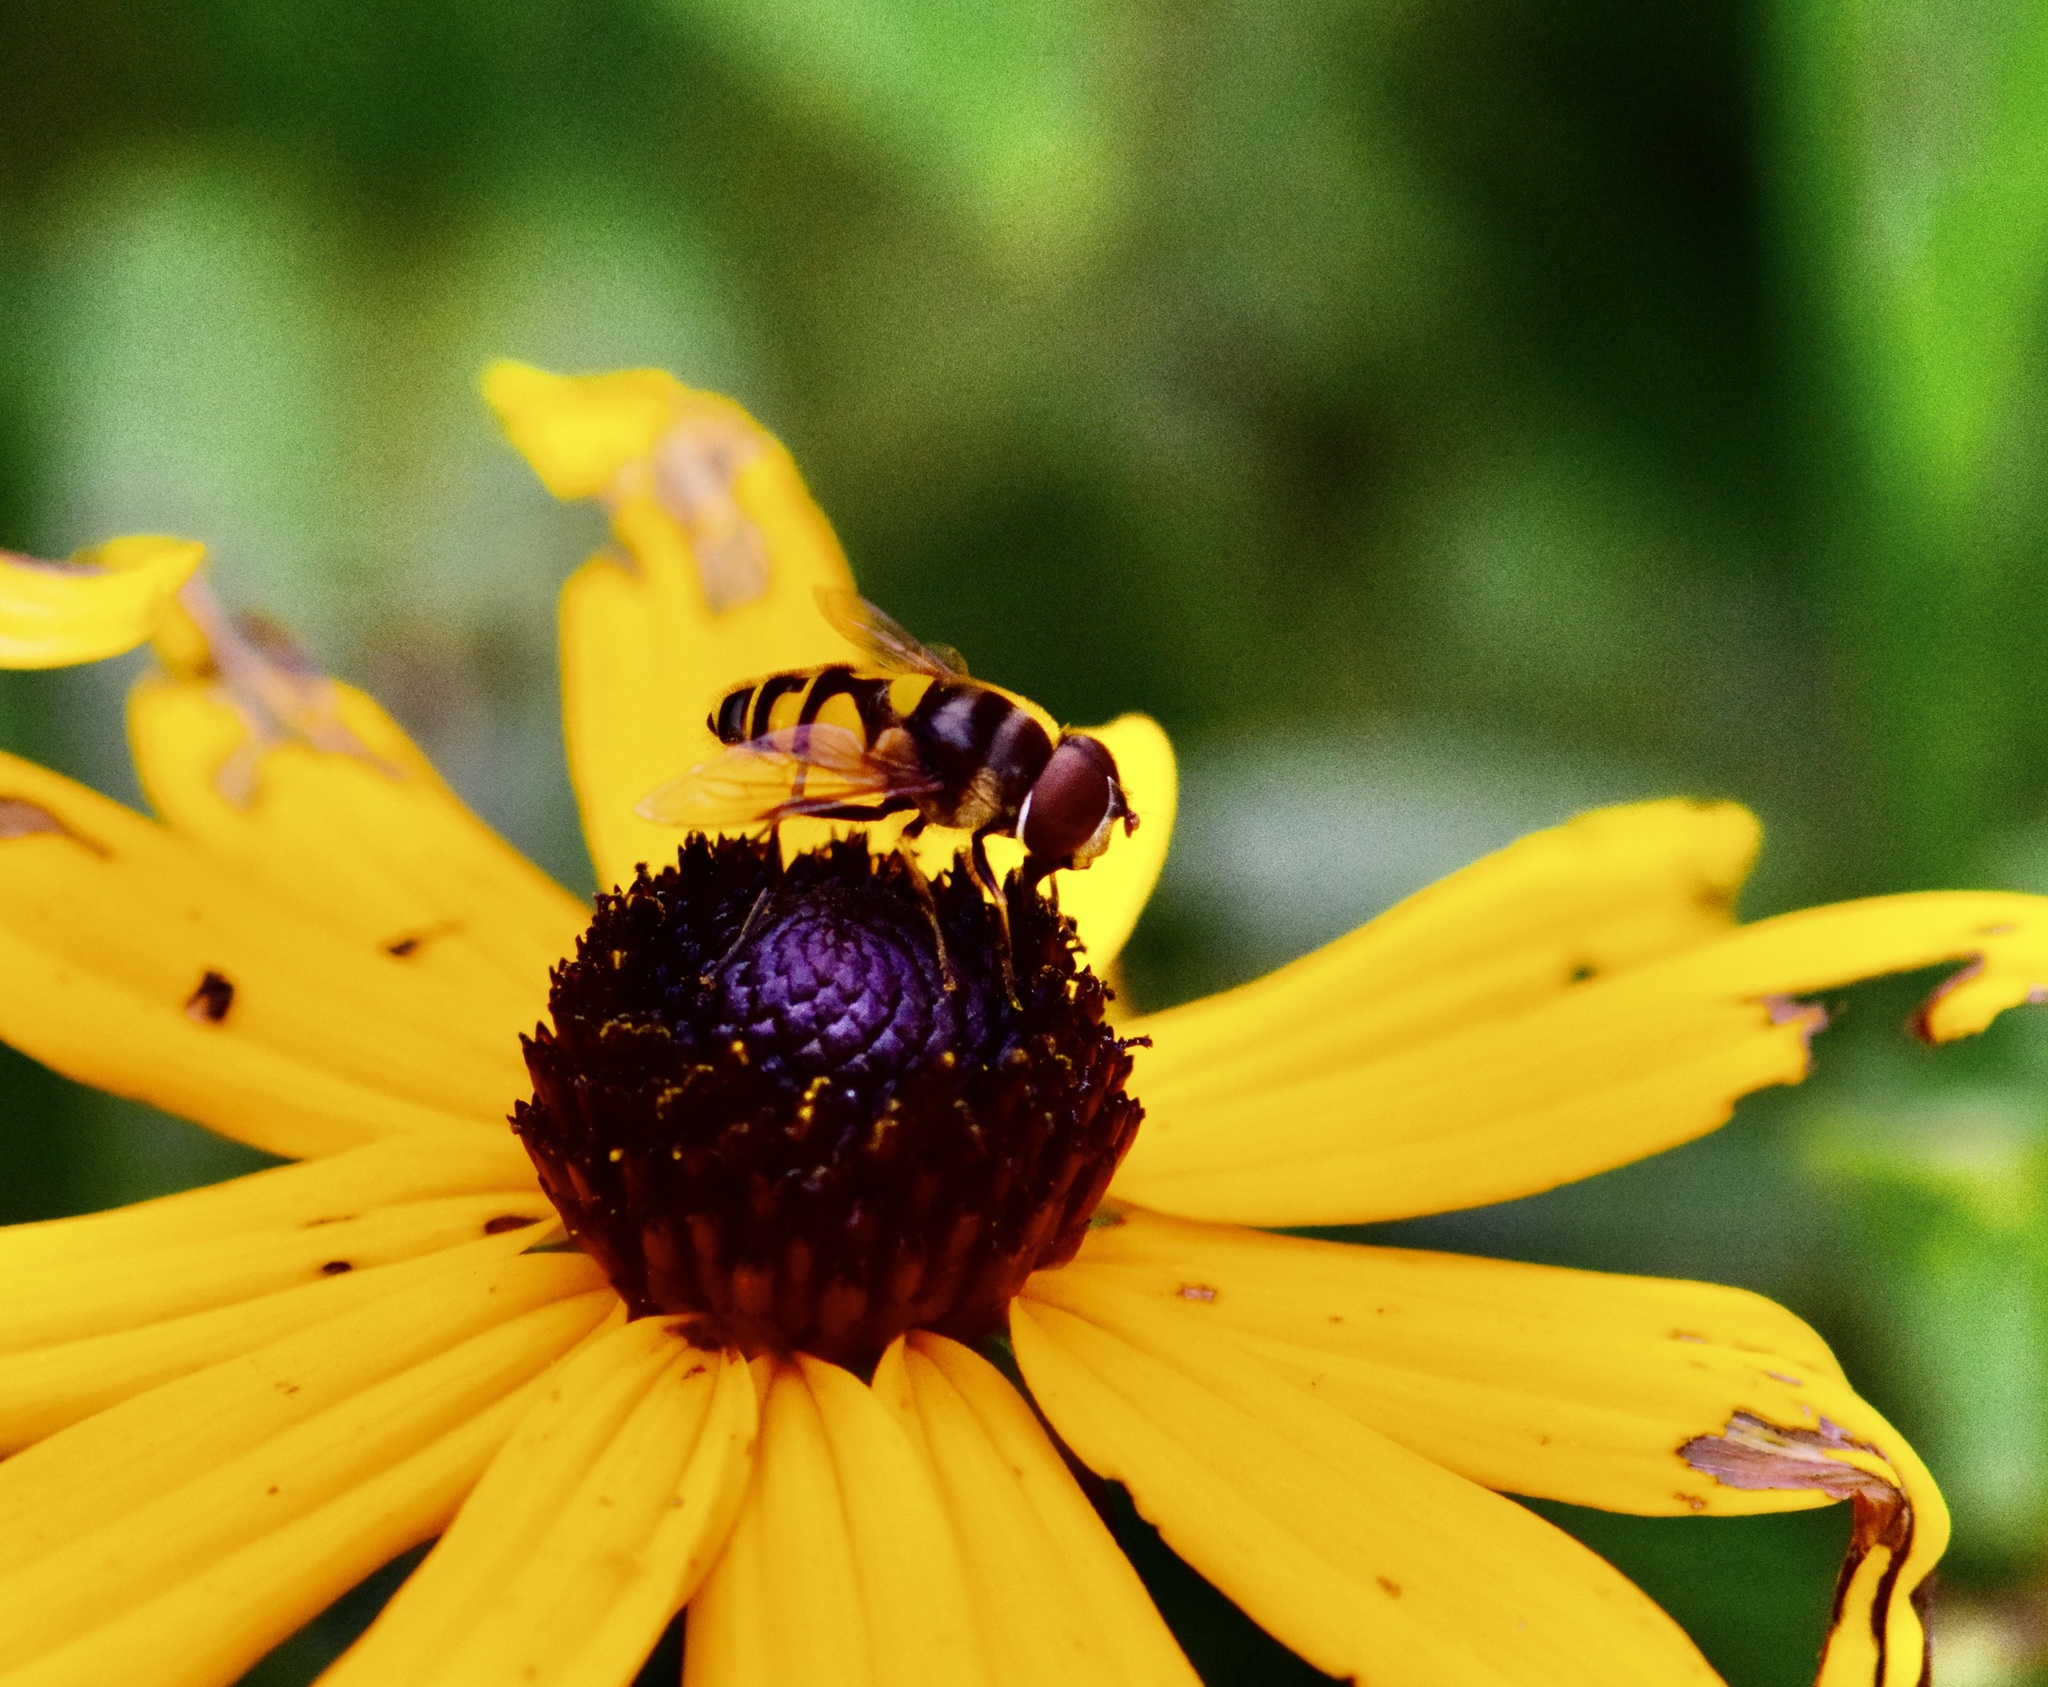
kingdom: Animalia
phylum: Arthropoda
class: Insecta
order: Diptera
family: Syrphidae
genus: Eristalis
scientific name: Eristalis transversa
